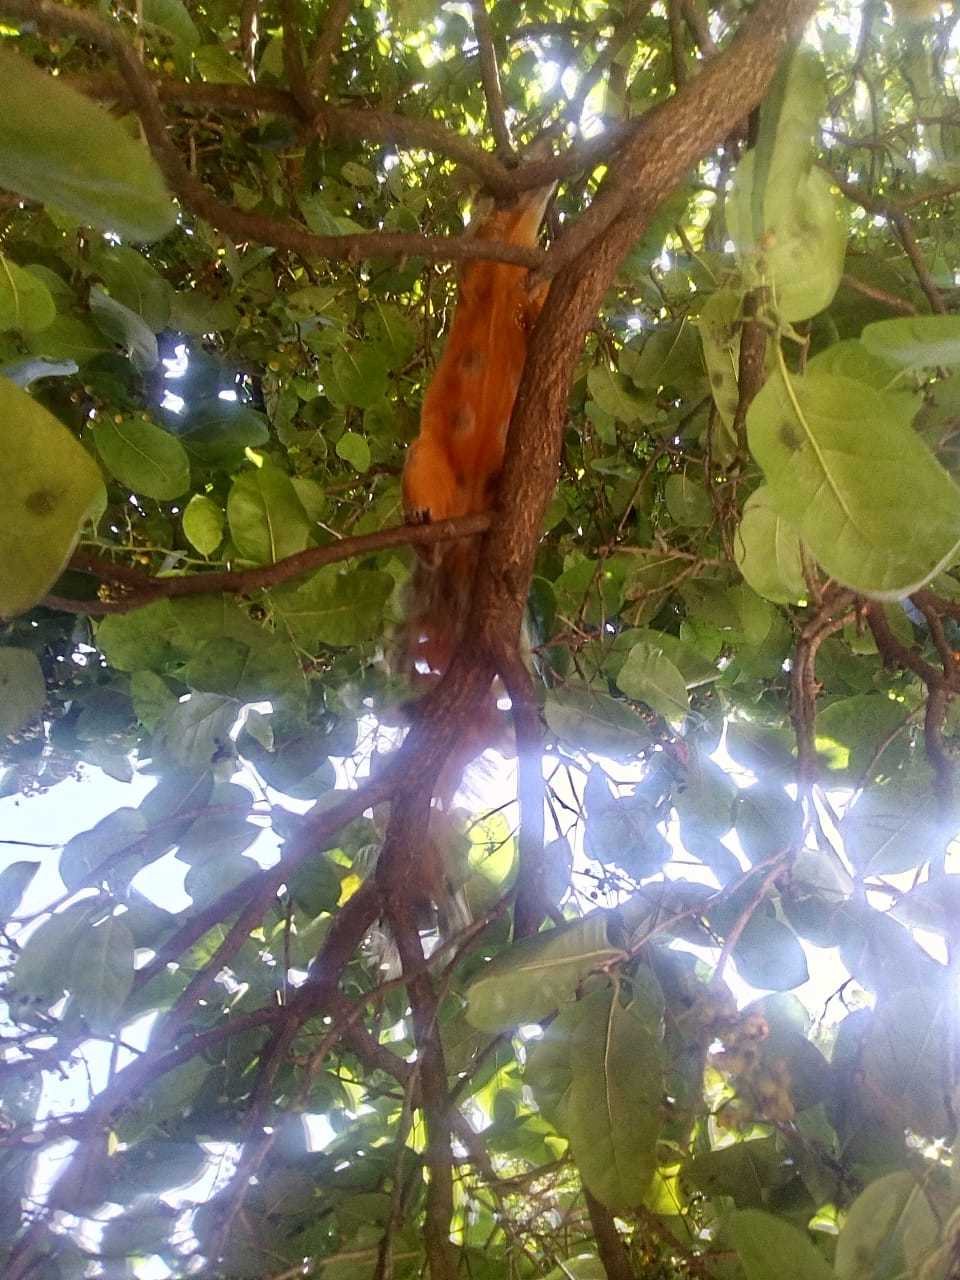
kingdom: Animalia
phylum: Chordata
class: Mammalia
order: Rodentia
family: Sciuridae
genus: Sciurus
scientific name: Sciurus aureogaster
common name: Red-bellied squirrel
